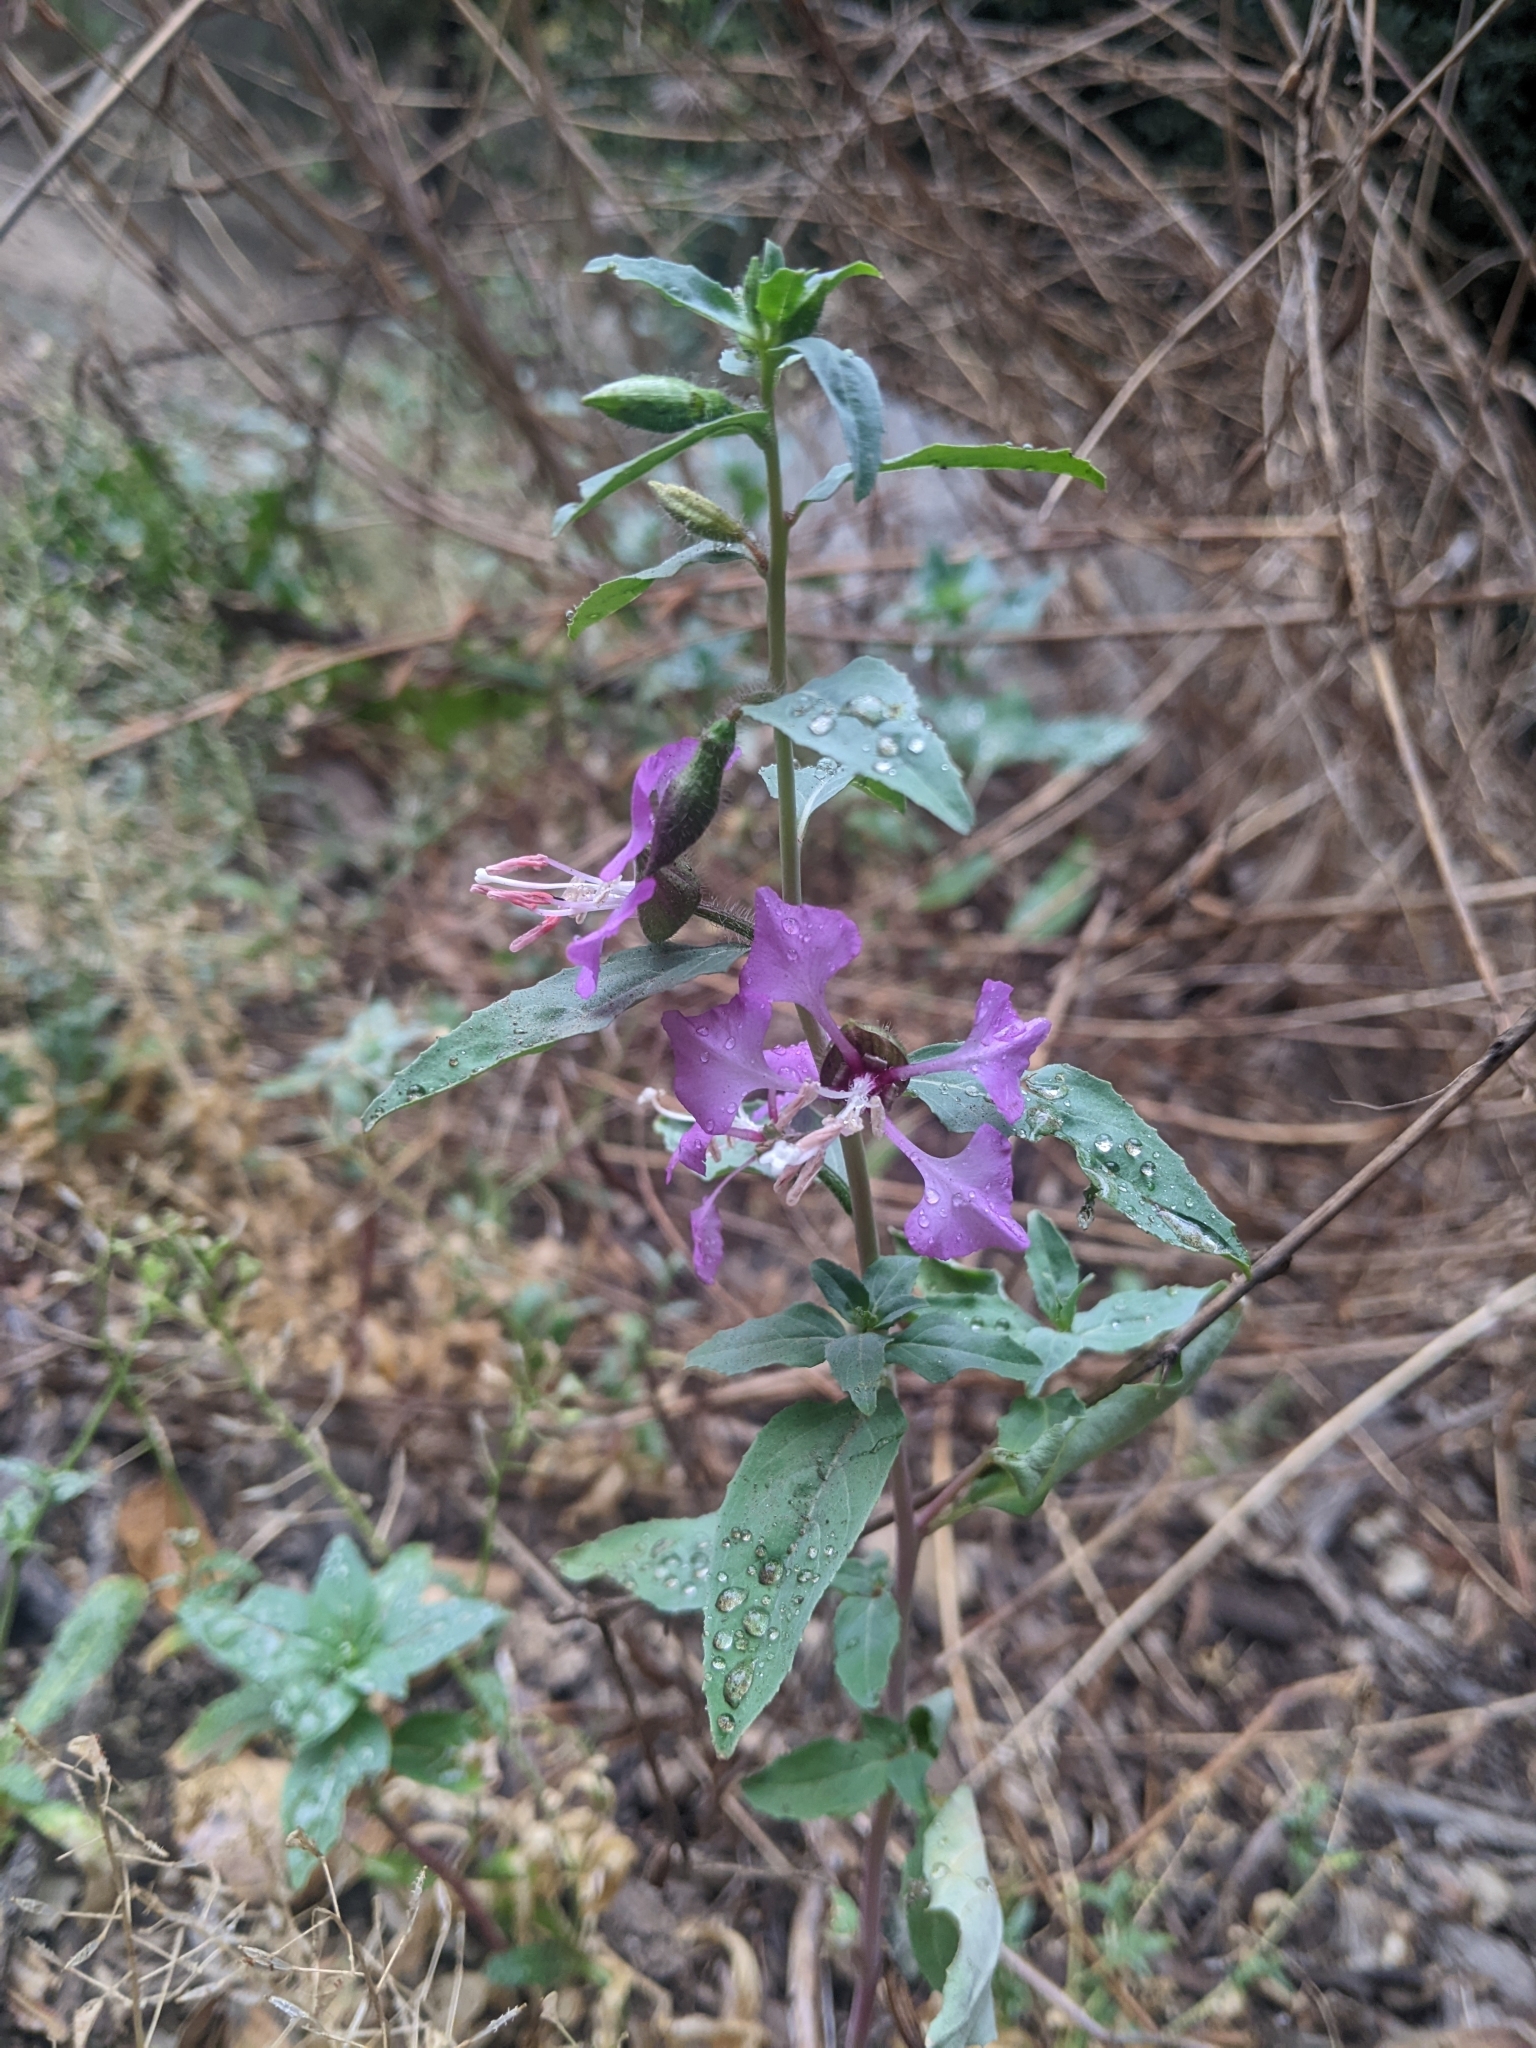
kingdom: Plantae
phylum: Tracheophyta
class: Magnoliopsida
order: Myrtales
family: Onagraceae
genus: Clarkia
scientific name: Clarkia unguiculata
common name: Clarkia
